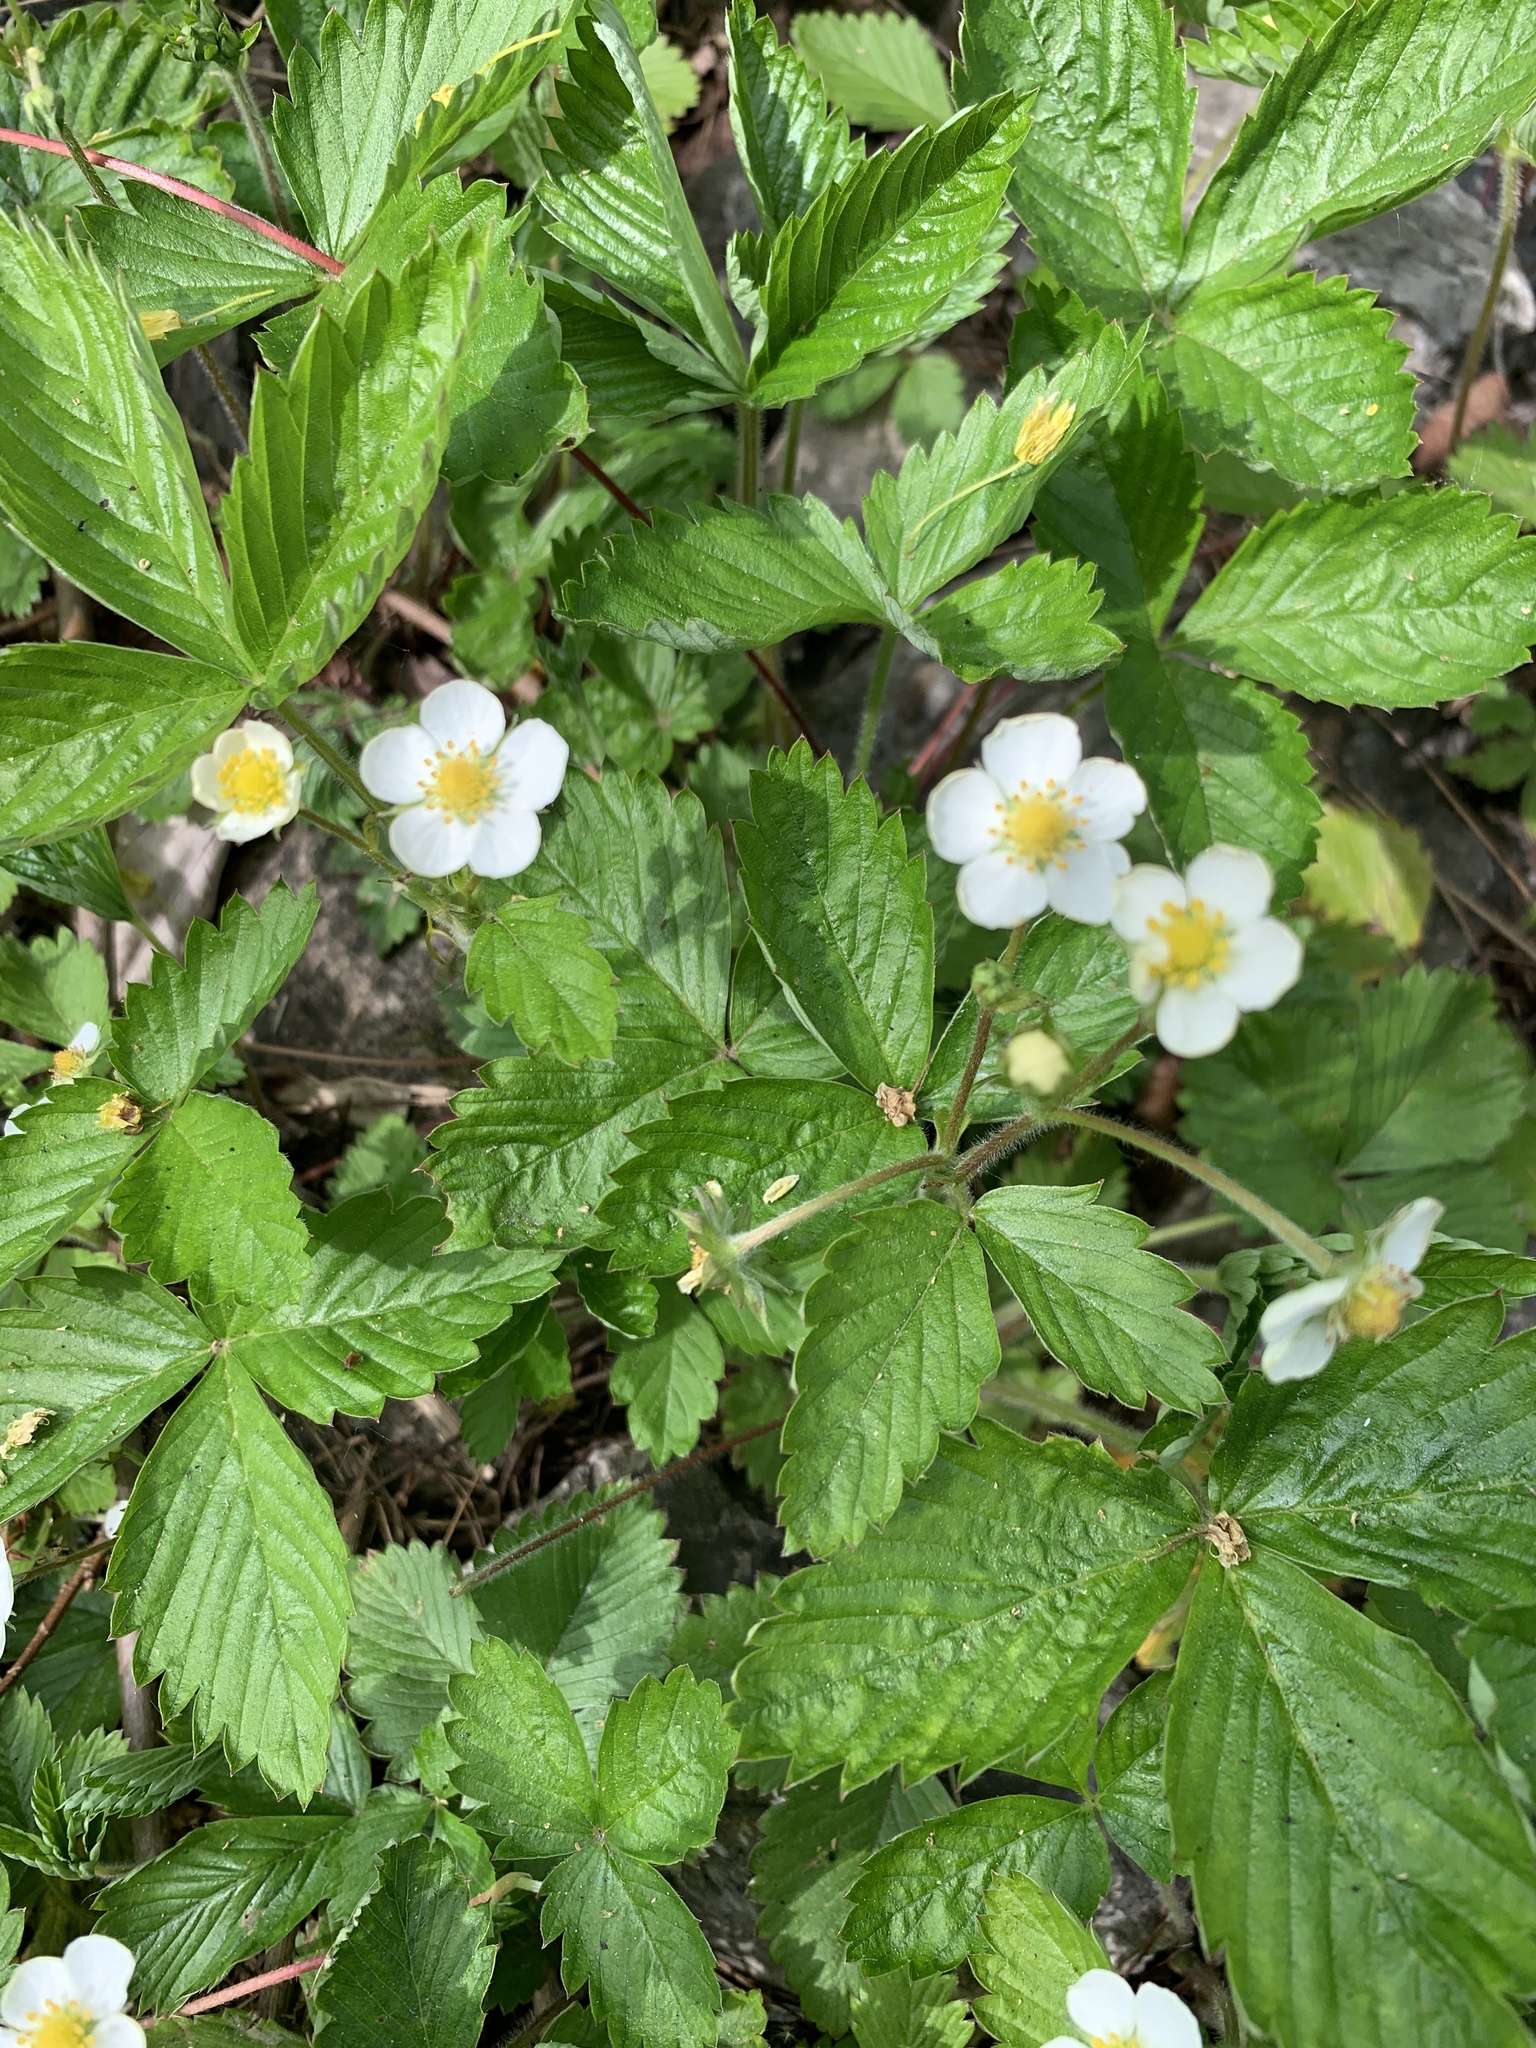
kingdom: Plantae
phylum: Tracheophyta
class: Magnoliopsida
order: Rosales
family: Rosaceae
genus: Fragaria
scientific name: Fragaria vesca
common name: Wild strawberry
